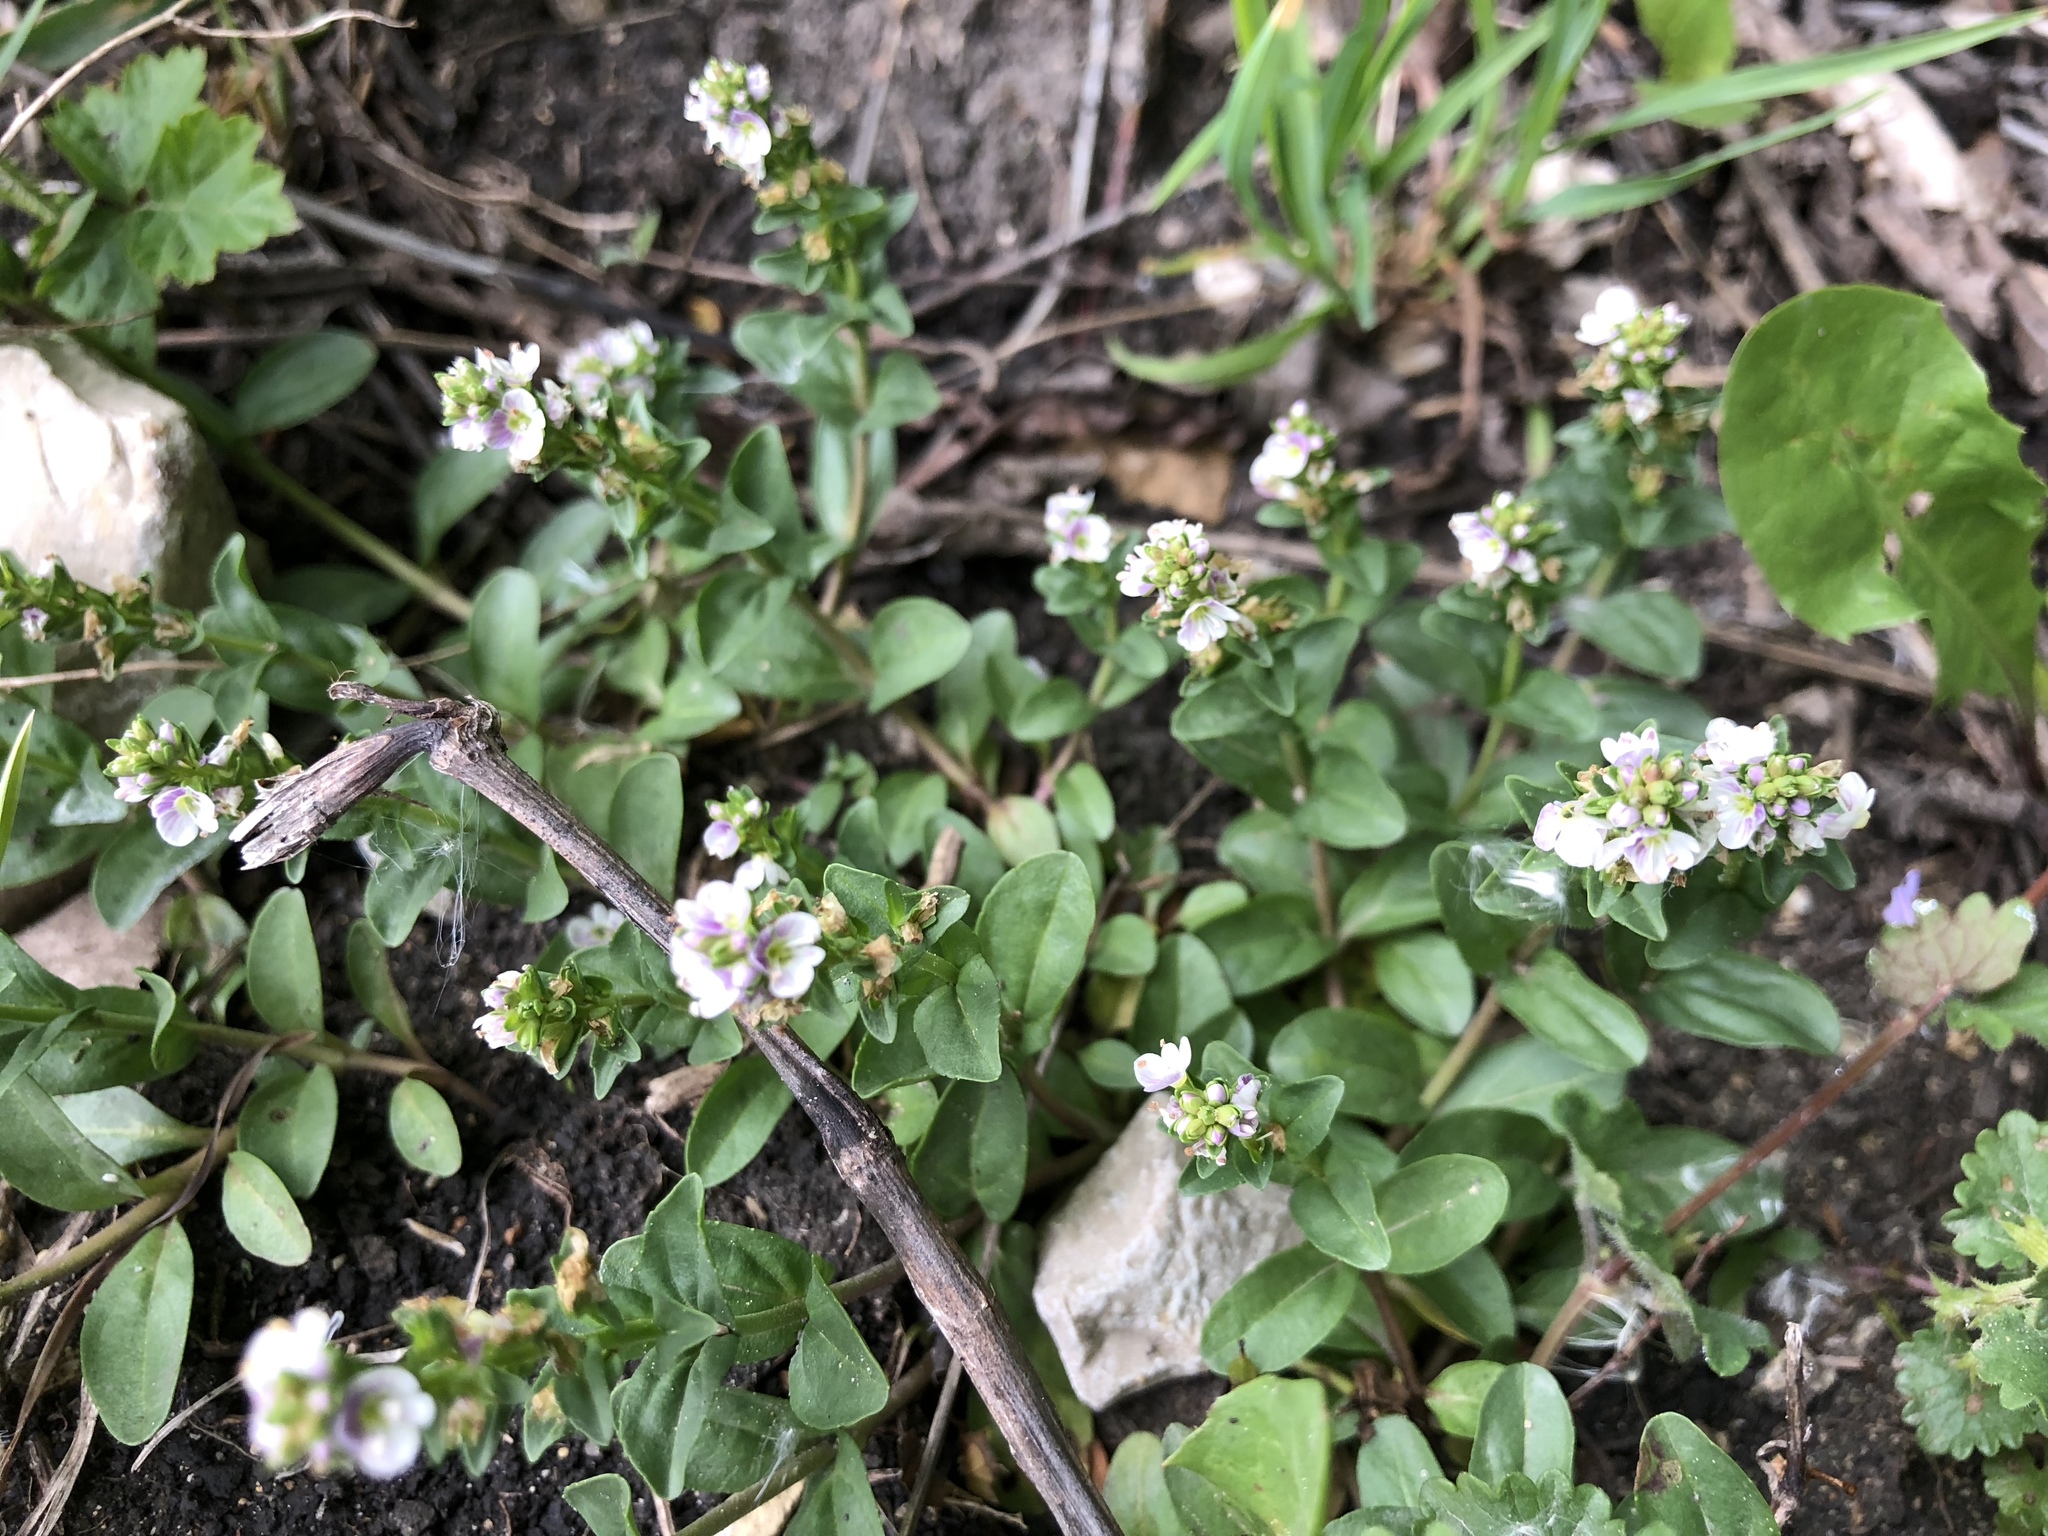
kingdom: Plantae
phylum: Tracheophyta
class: Magnoliopsida
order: Lamiales
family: Plantaginaceae
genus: Veronica
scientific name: Veronica serpyllifolia
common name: Thyme-leaved speedwell
